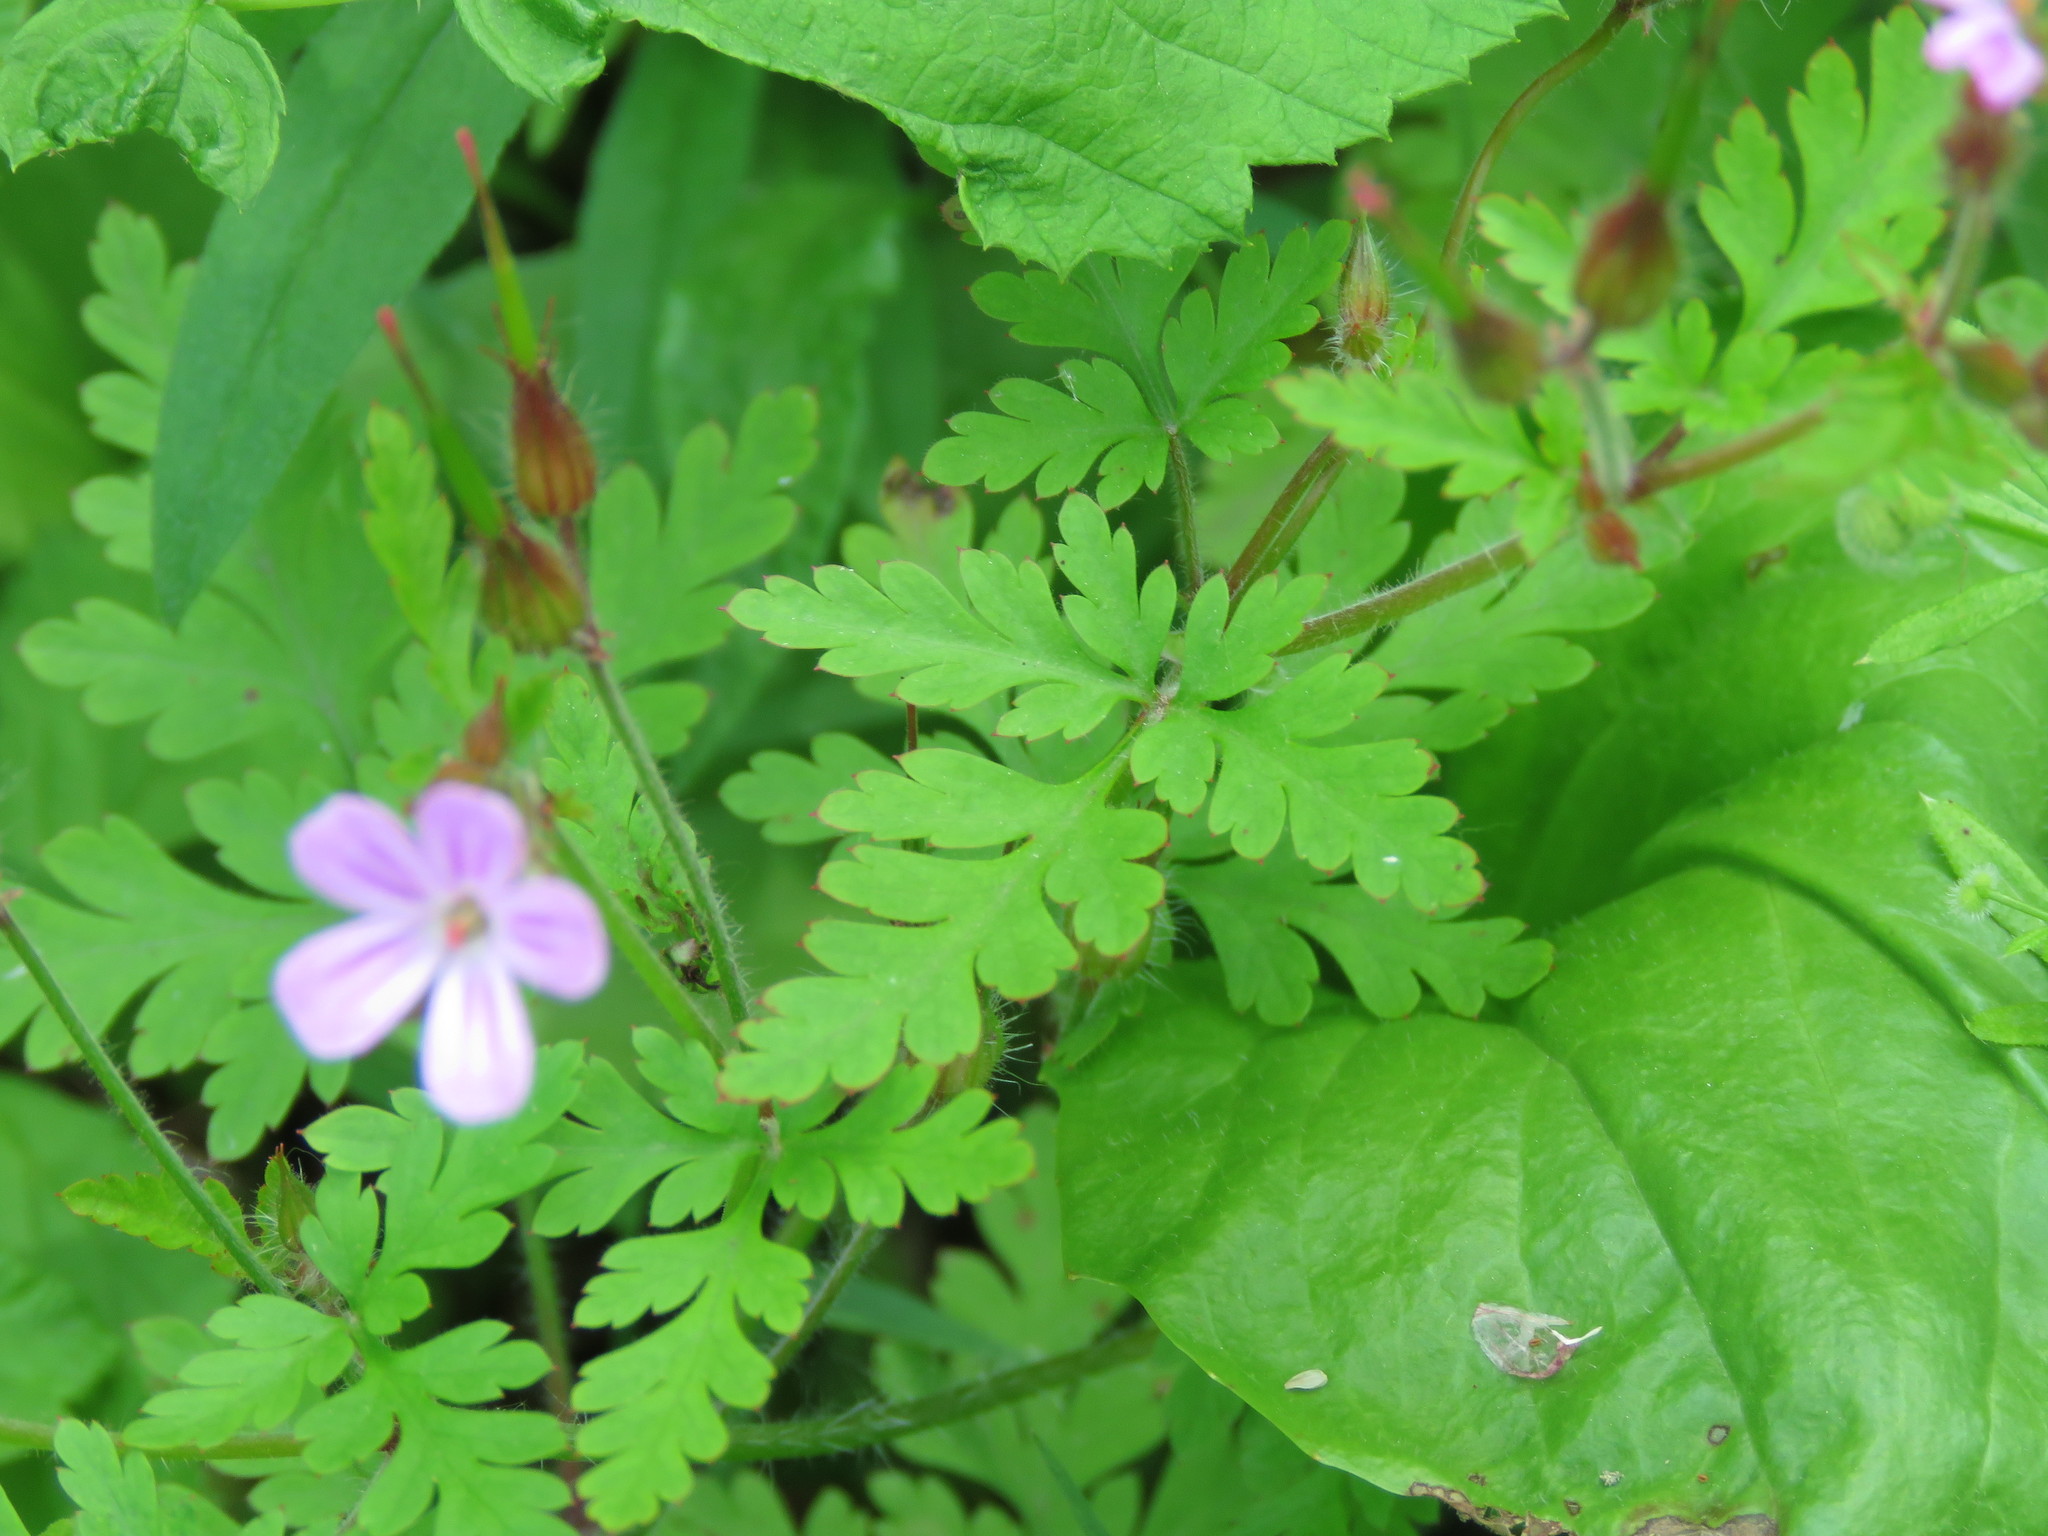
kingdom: Plantae
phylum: Tracheophyta
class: Magnoliopsida
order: Geraniales
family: Geraniaceae
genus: Geranium
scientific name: Geranium robertianum
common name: Herb-robert
